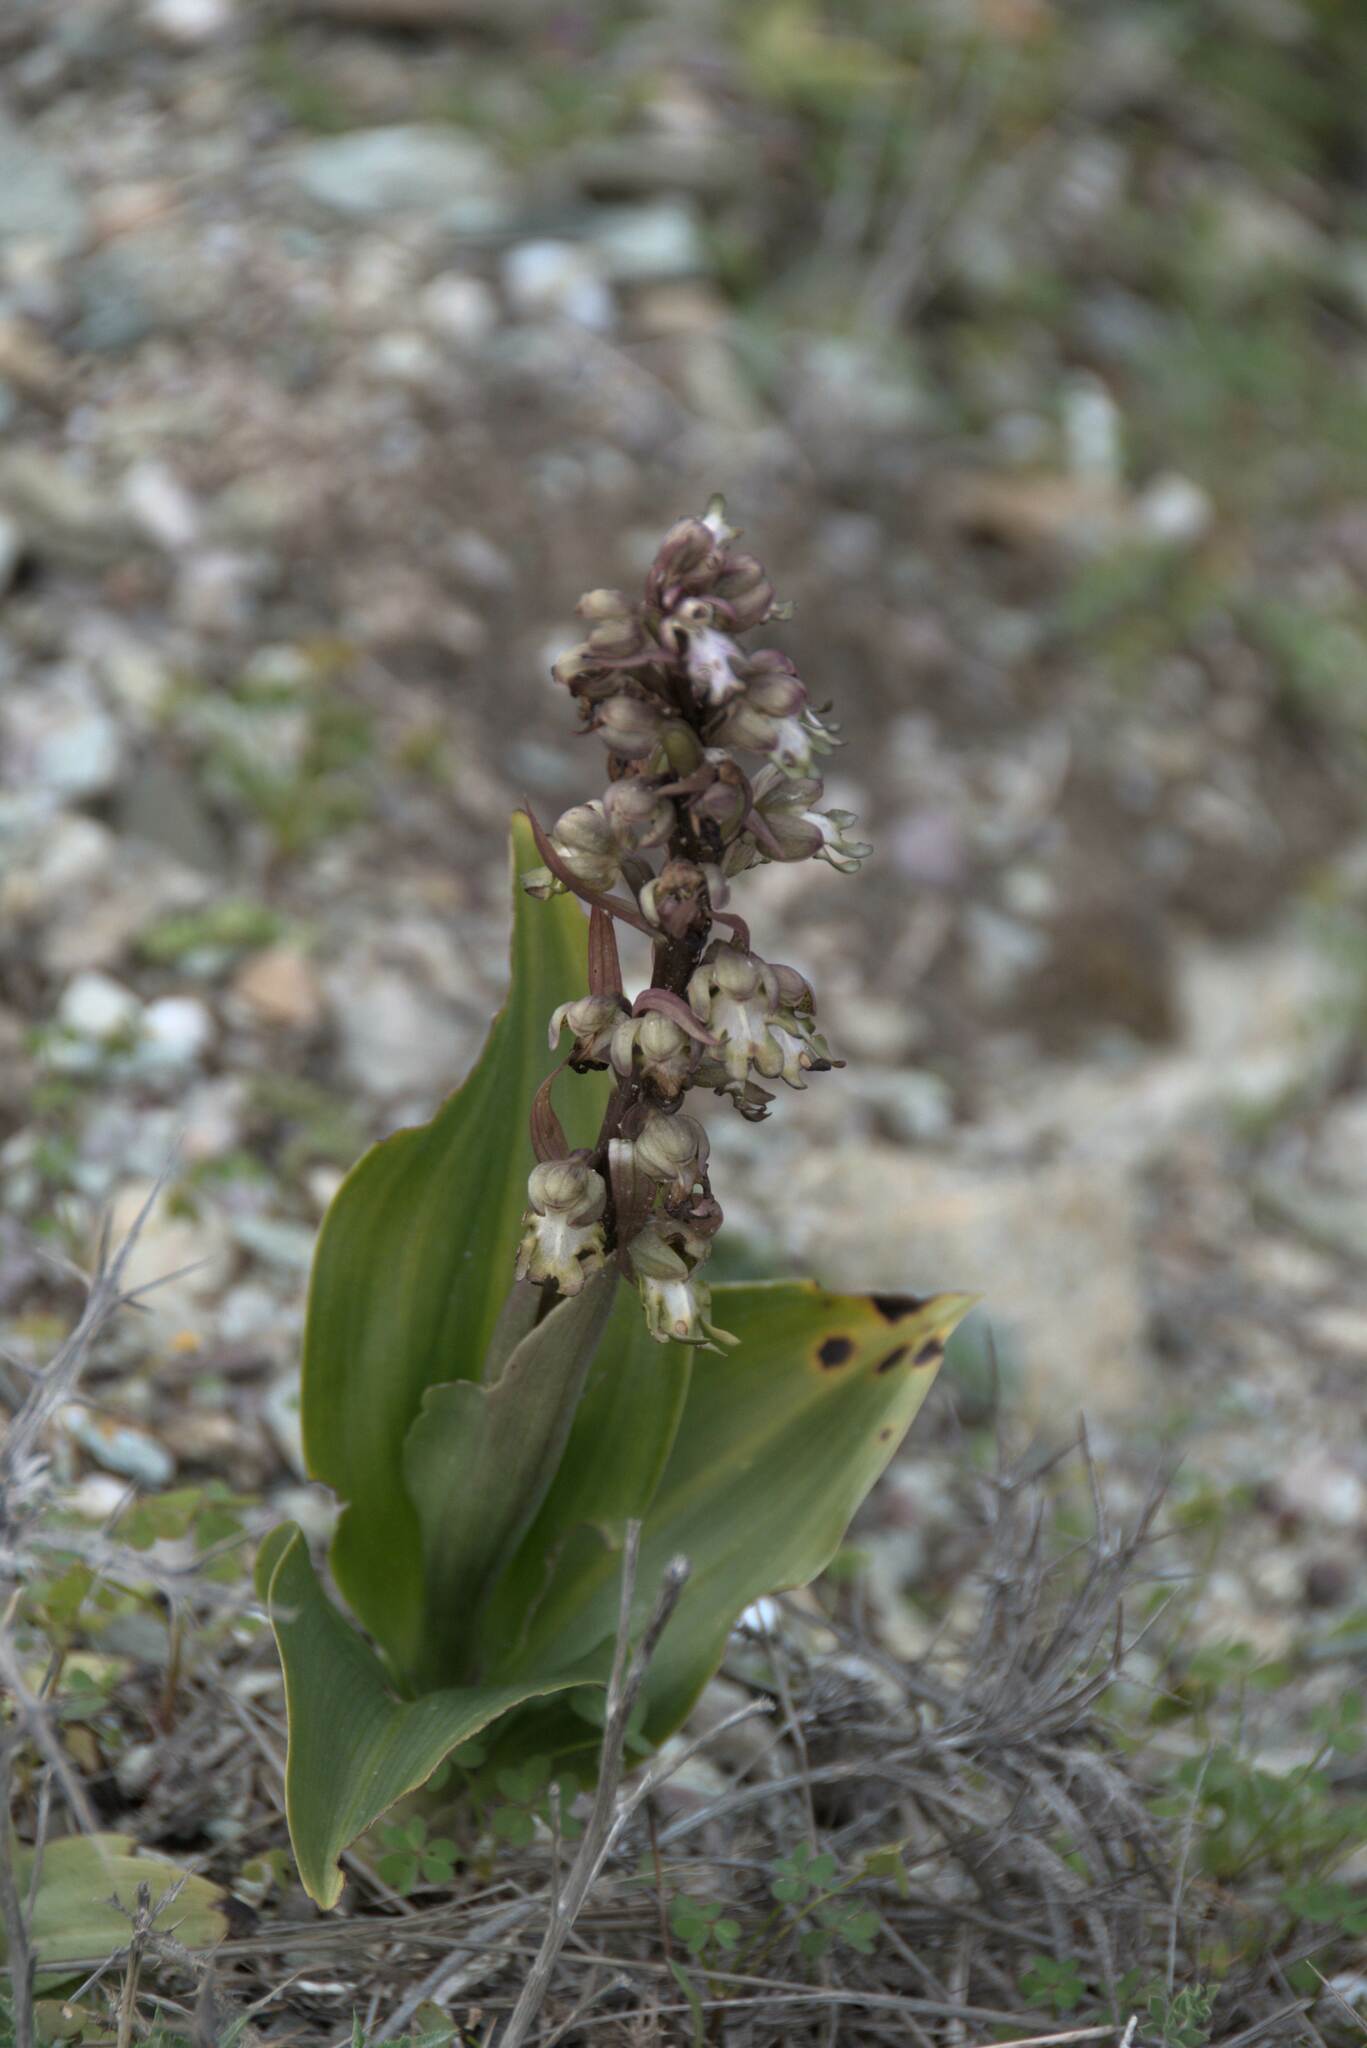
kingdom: Plantae
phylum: Tracheophyta
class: Liliopsida
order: Asparagales
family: Orchidaceae
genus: Himantoglossum
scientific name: Himantoglossum robertianum
